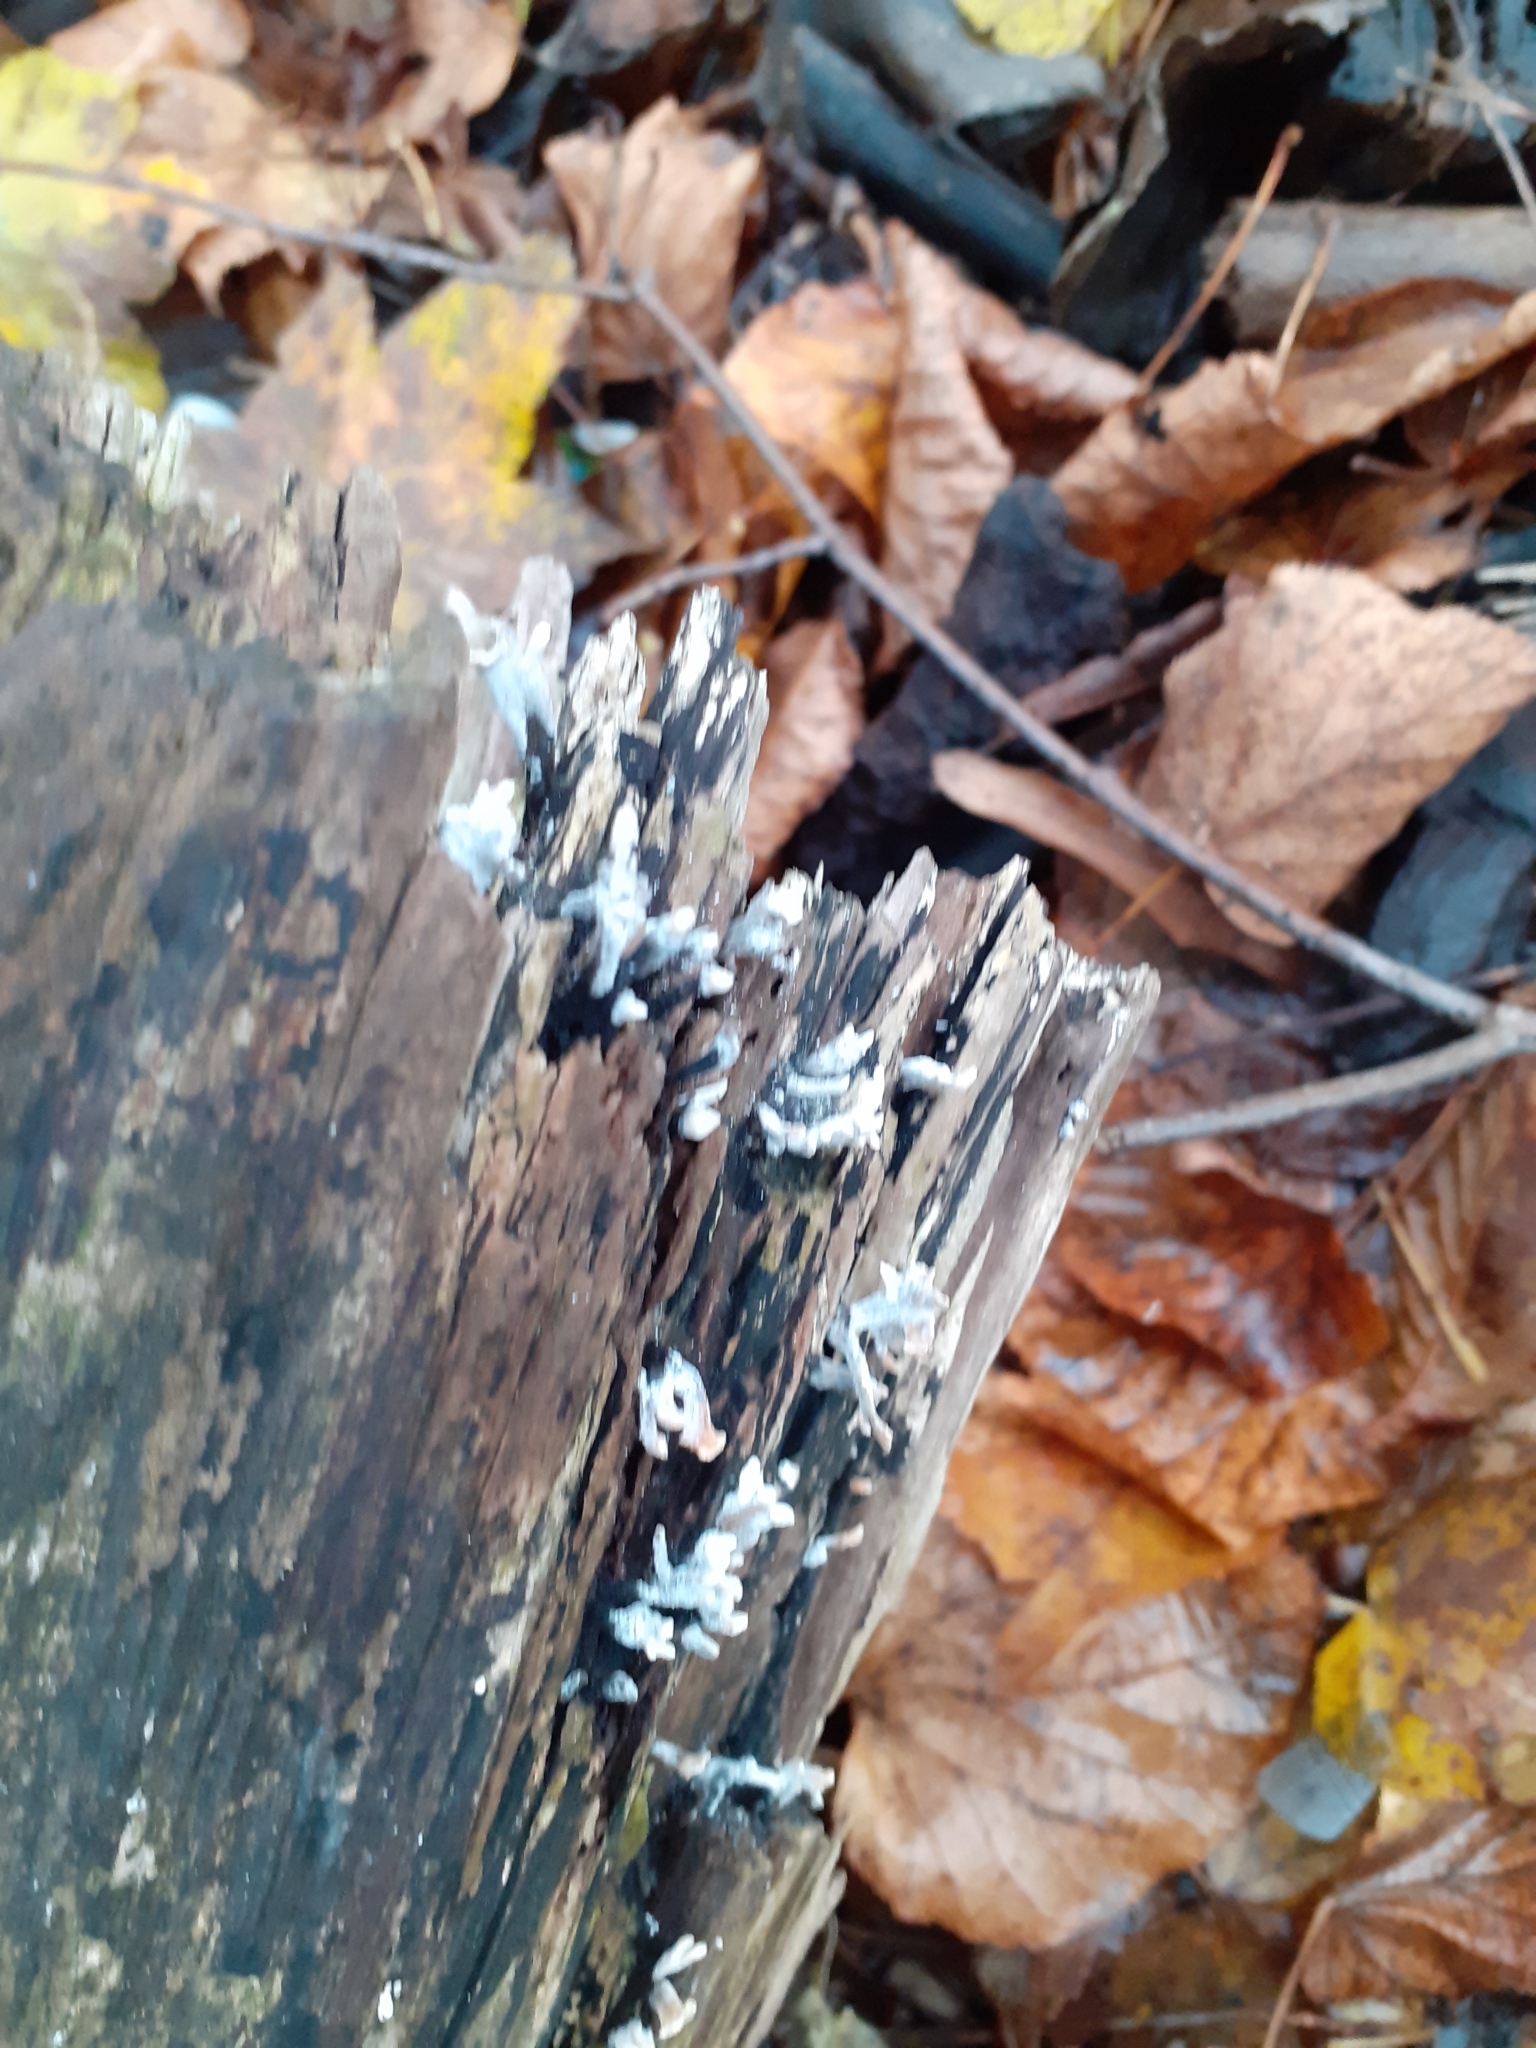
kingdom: Fungi
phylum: Ascomycota
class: Sordariomycetes
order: Xylariales
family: Xylariaceae
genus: Xylaria
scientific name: Xylaria hypoxylon
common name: Candle-snuff fungus
